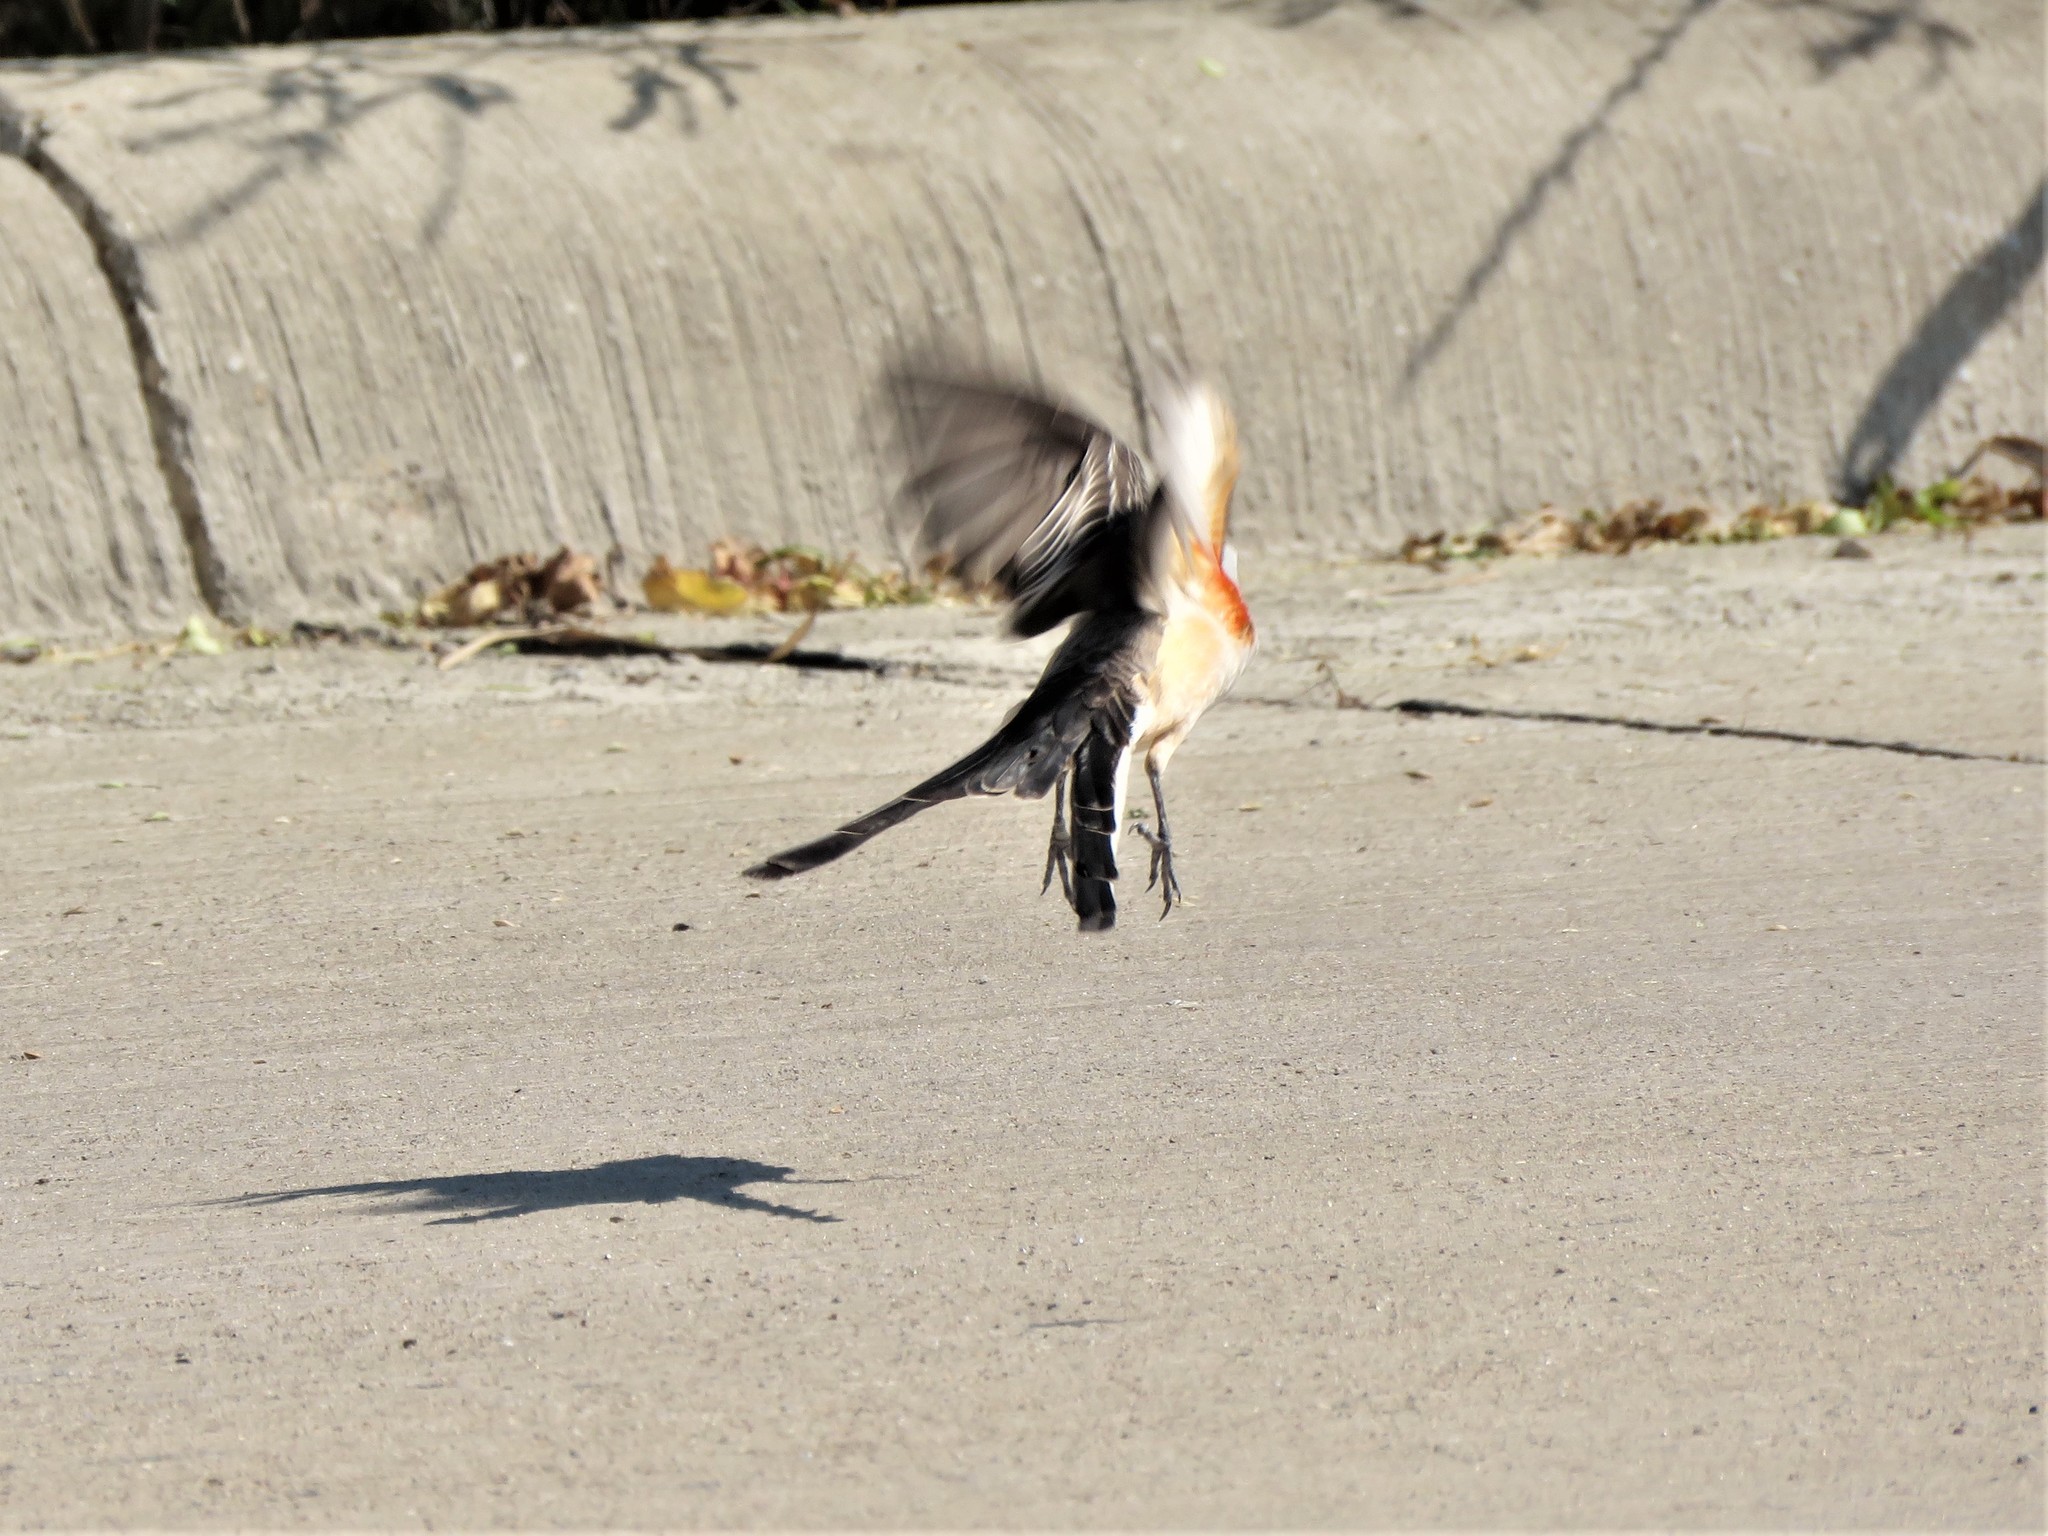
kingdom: Animalia
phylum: Chordata
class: Aves
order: Passeriformes
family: Tyrannidae
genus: Tyrannus
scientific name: Tyrannus forficatus
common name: Scissor-tailed flycatcher
